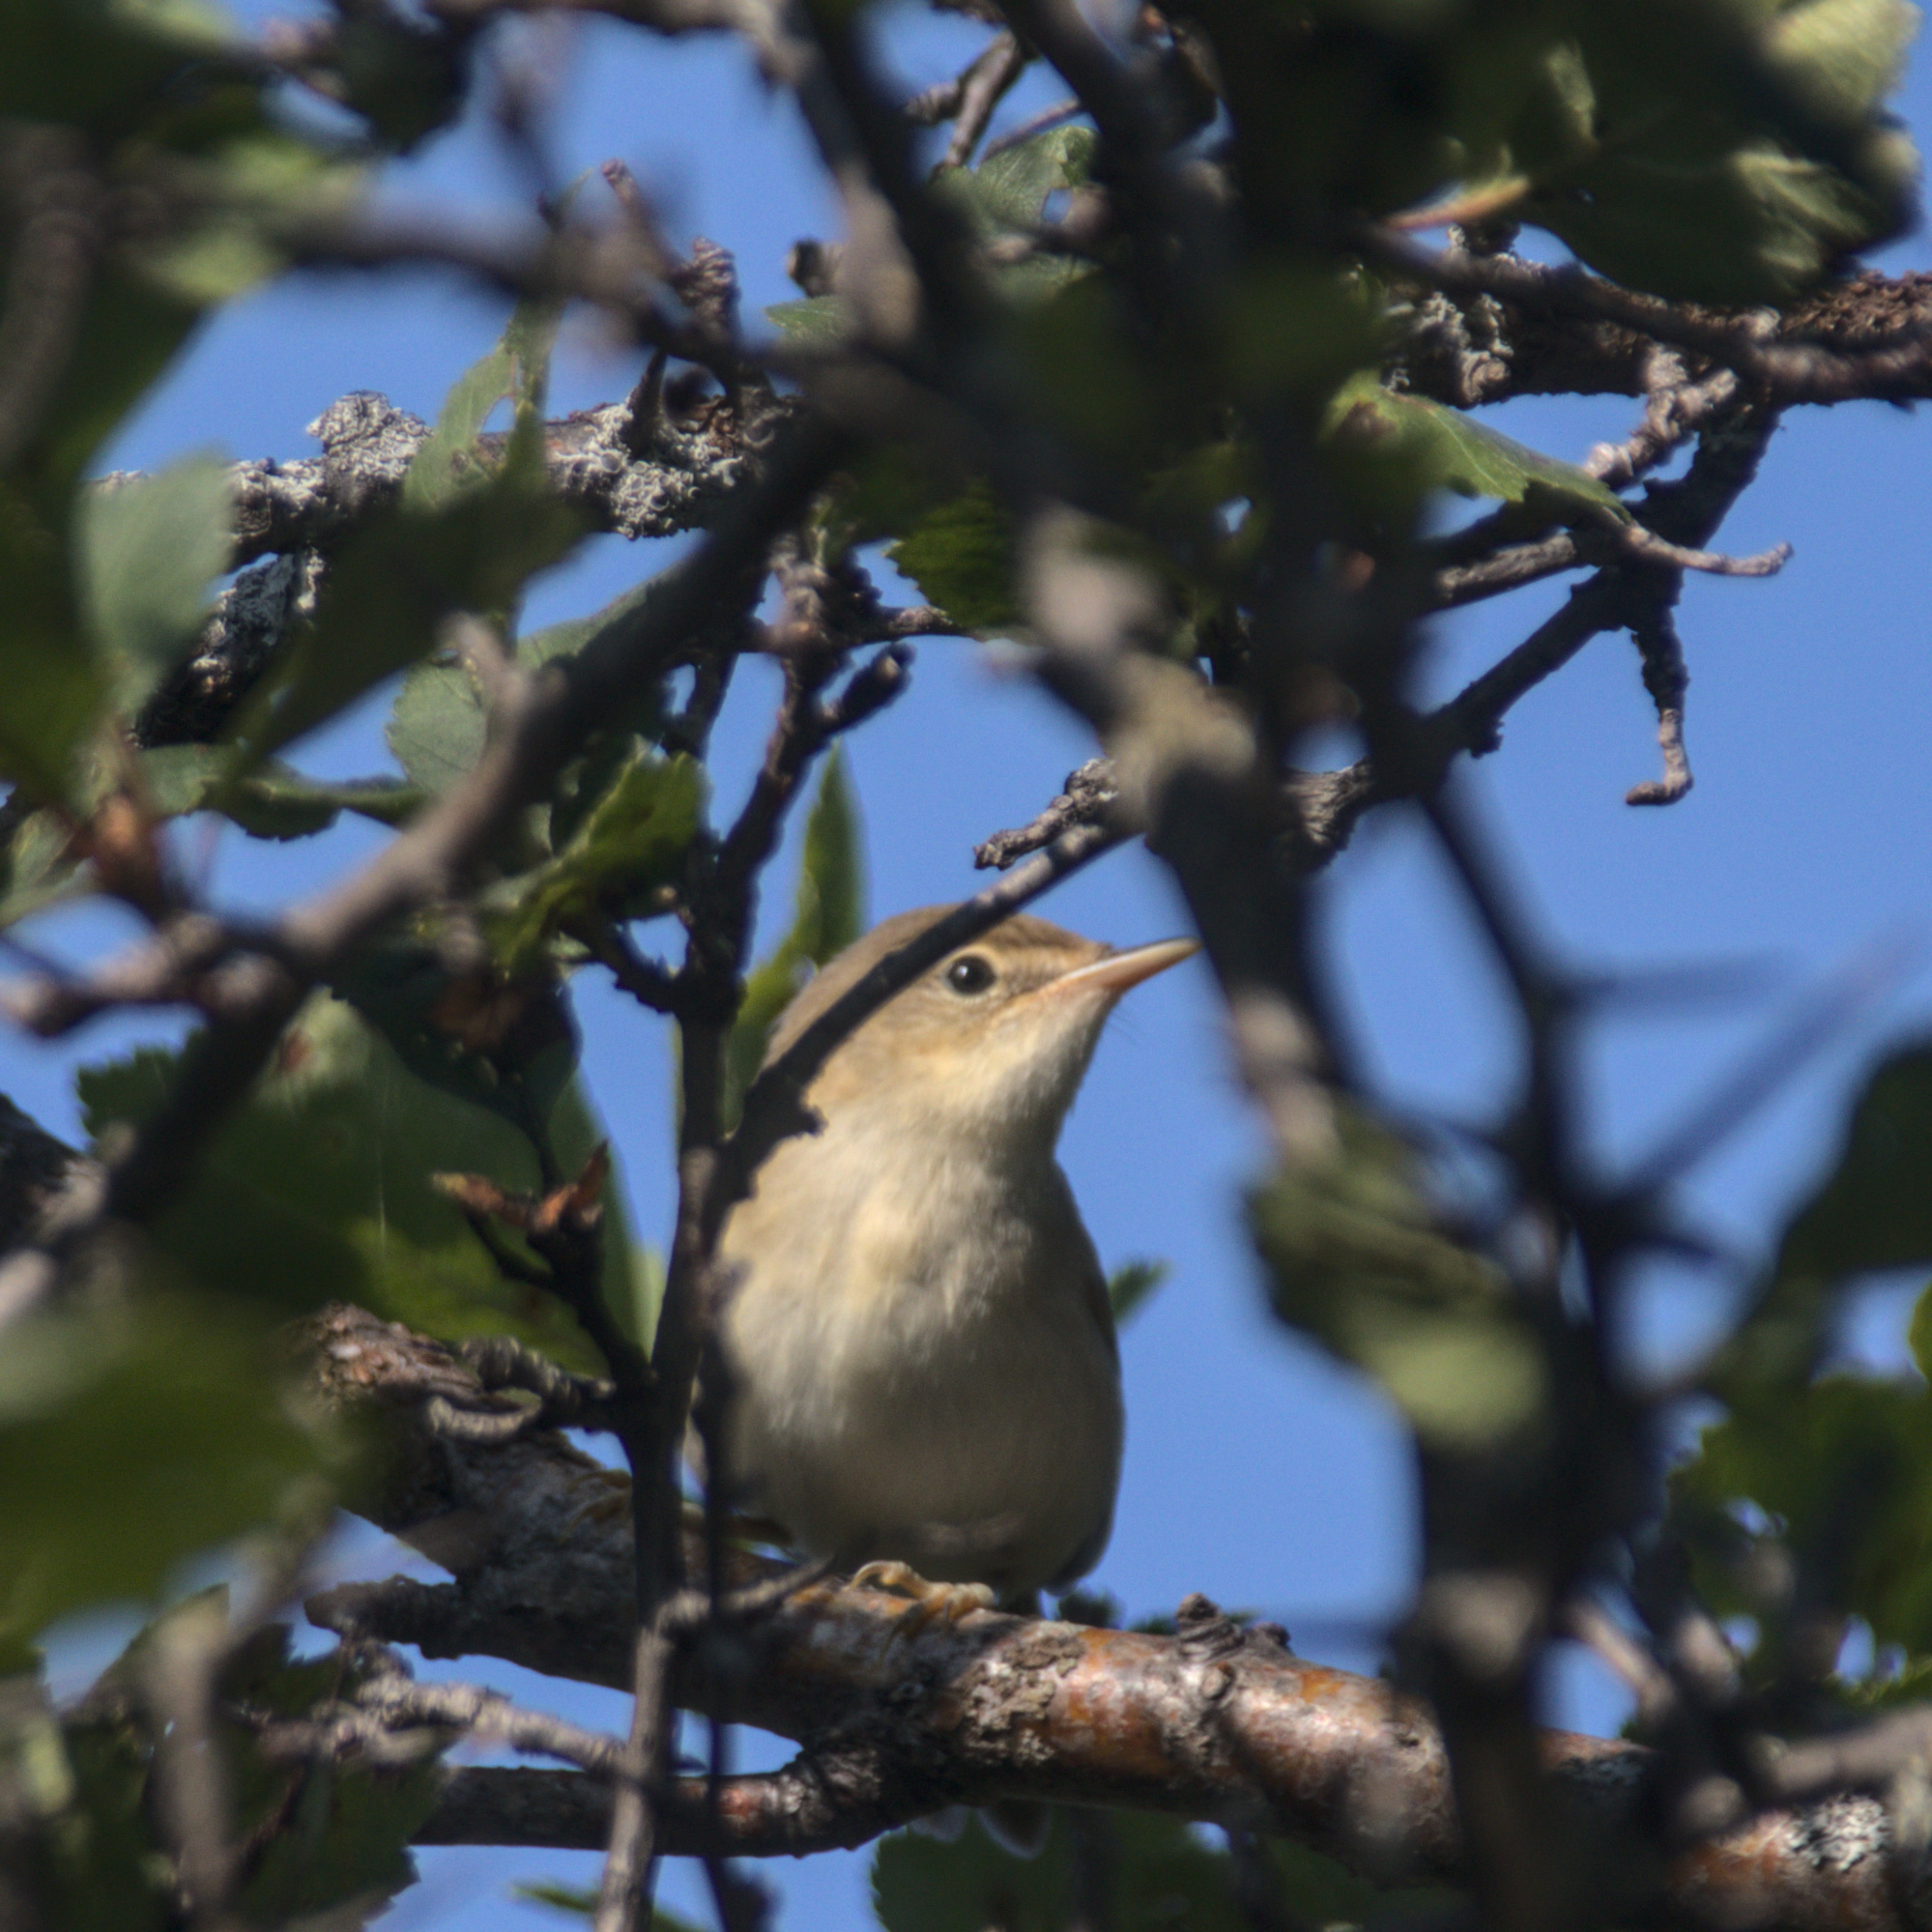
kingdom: Animalia
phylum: Chordata
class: Aves
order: Passeriformes
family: Phylloscopidae
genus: Phylloscopus
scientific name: Phylloscopus trochilus
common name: Willow warbler
